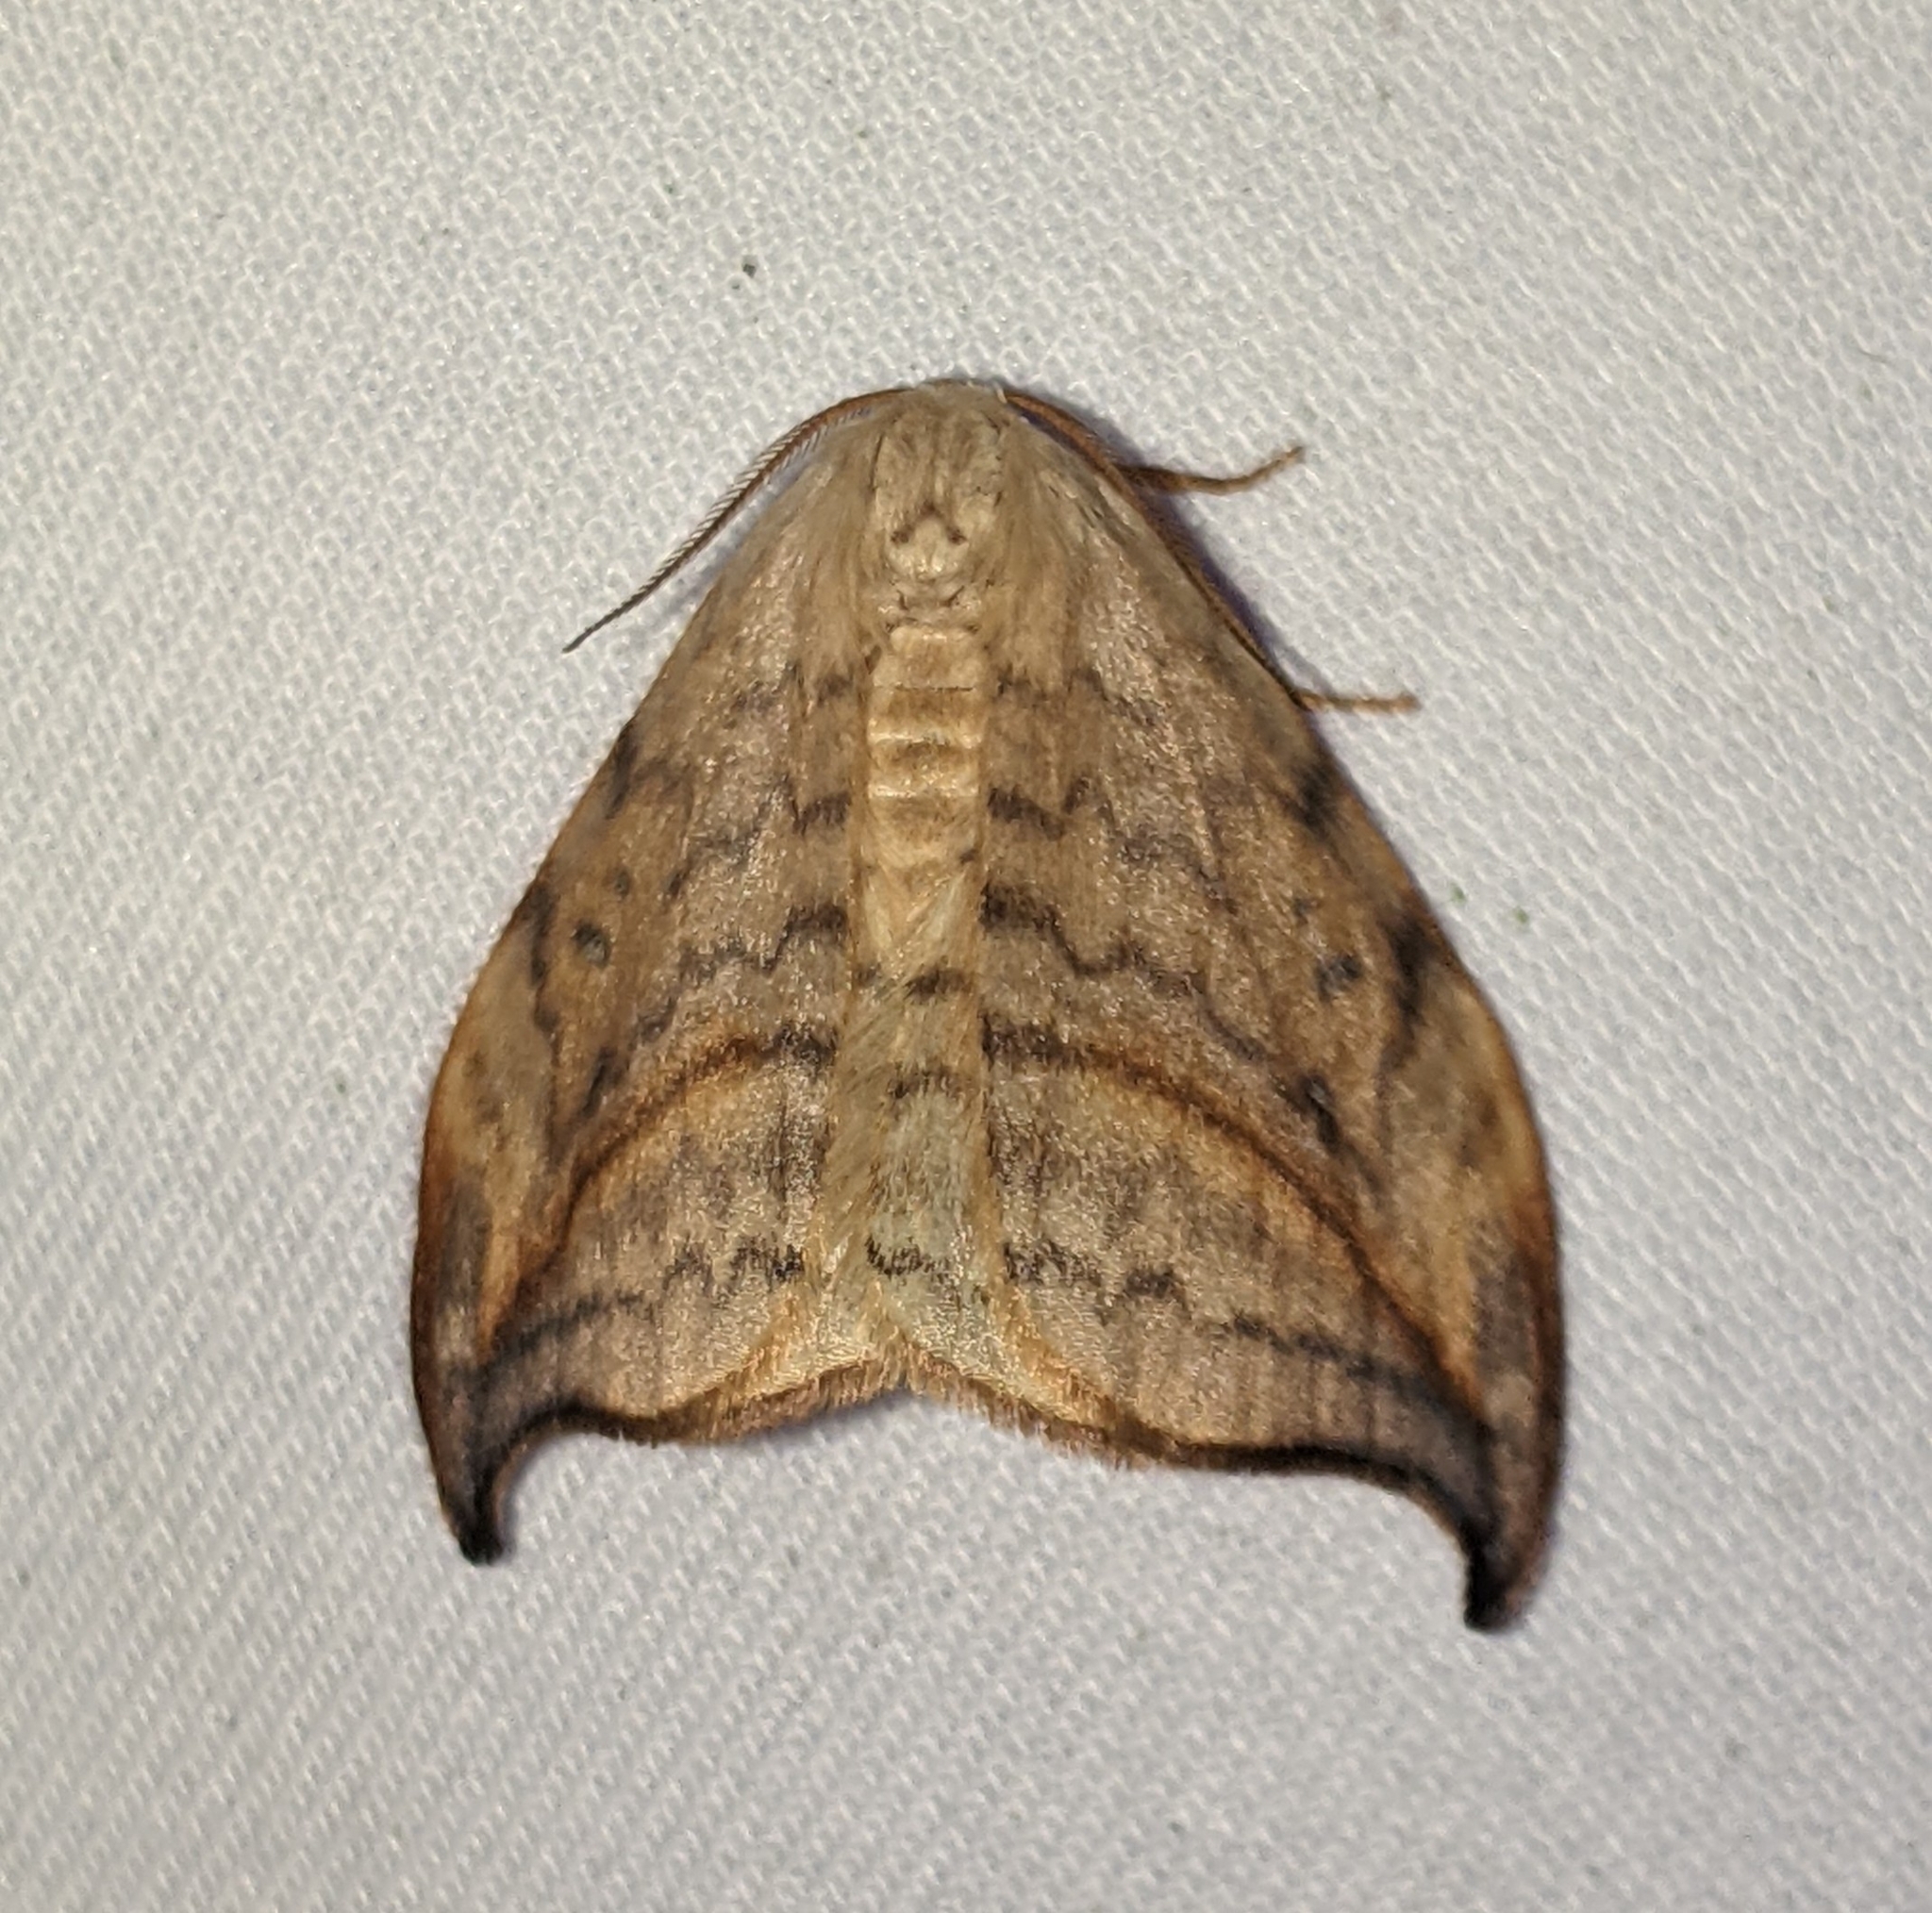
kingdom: Animalia
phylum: Arthropoda
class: Insecta
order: Lepidoptera
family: Drepanidae
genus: Drepana
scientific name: Drepana arcuata
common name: Arched hooktip moth
